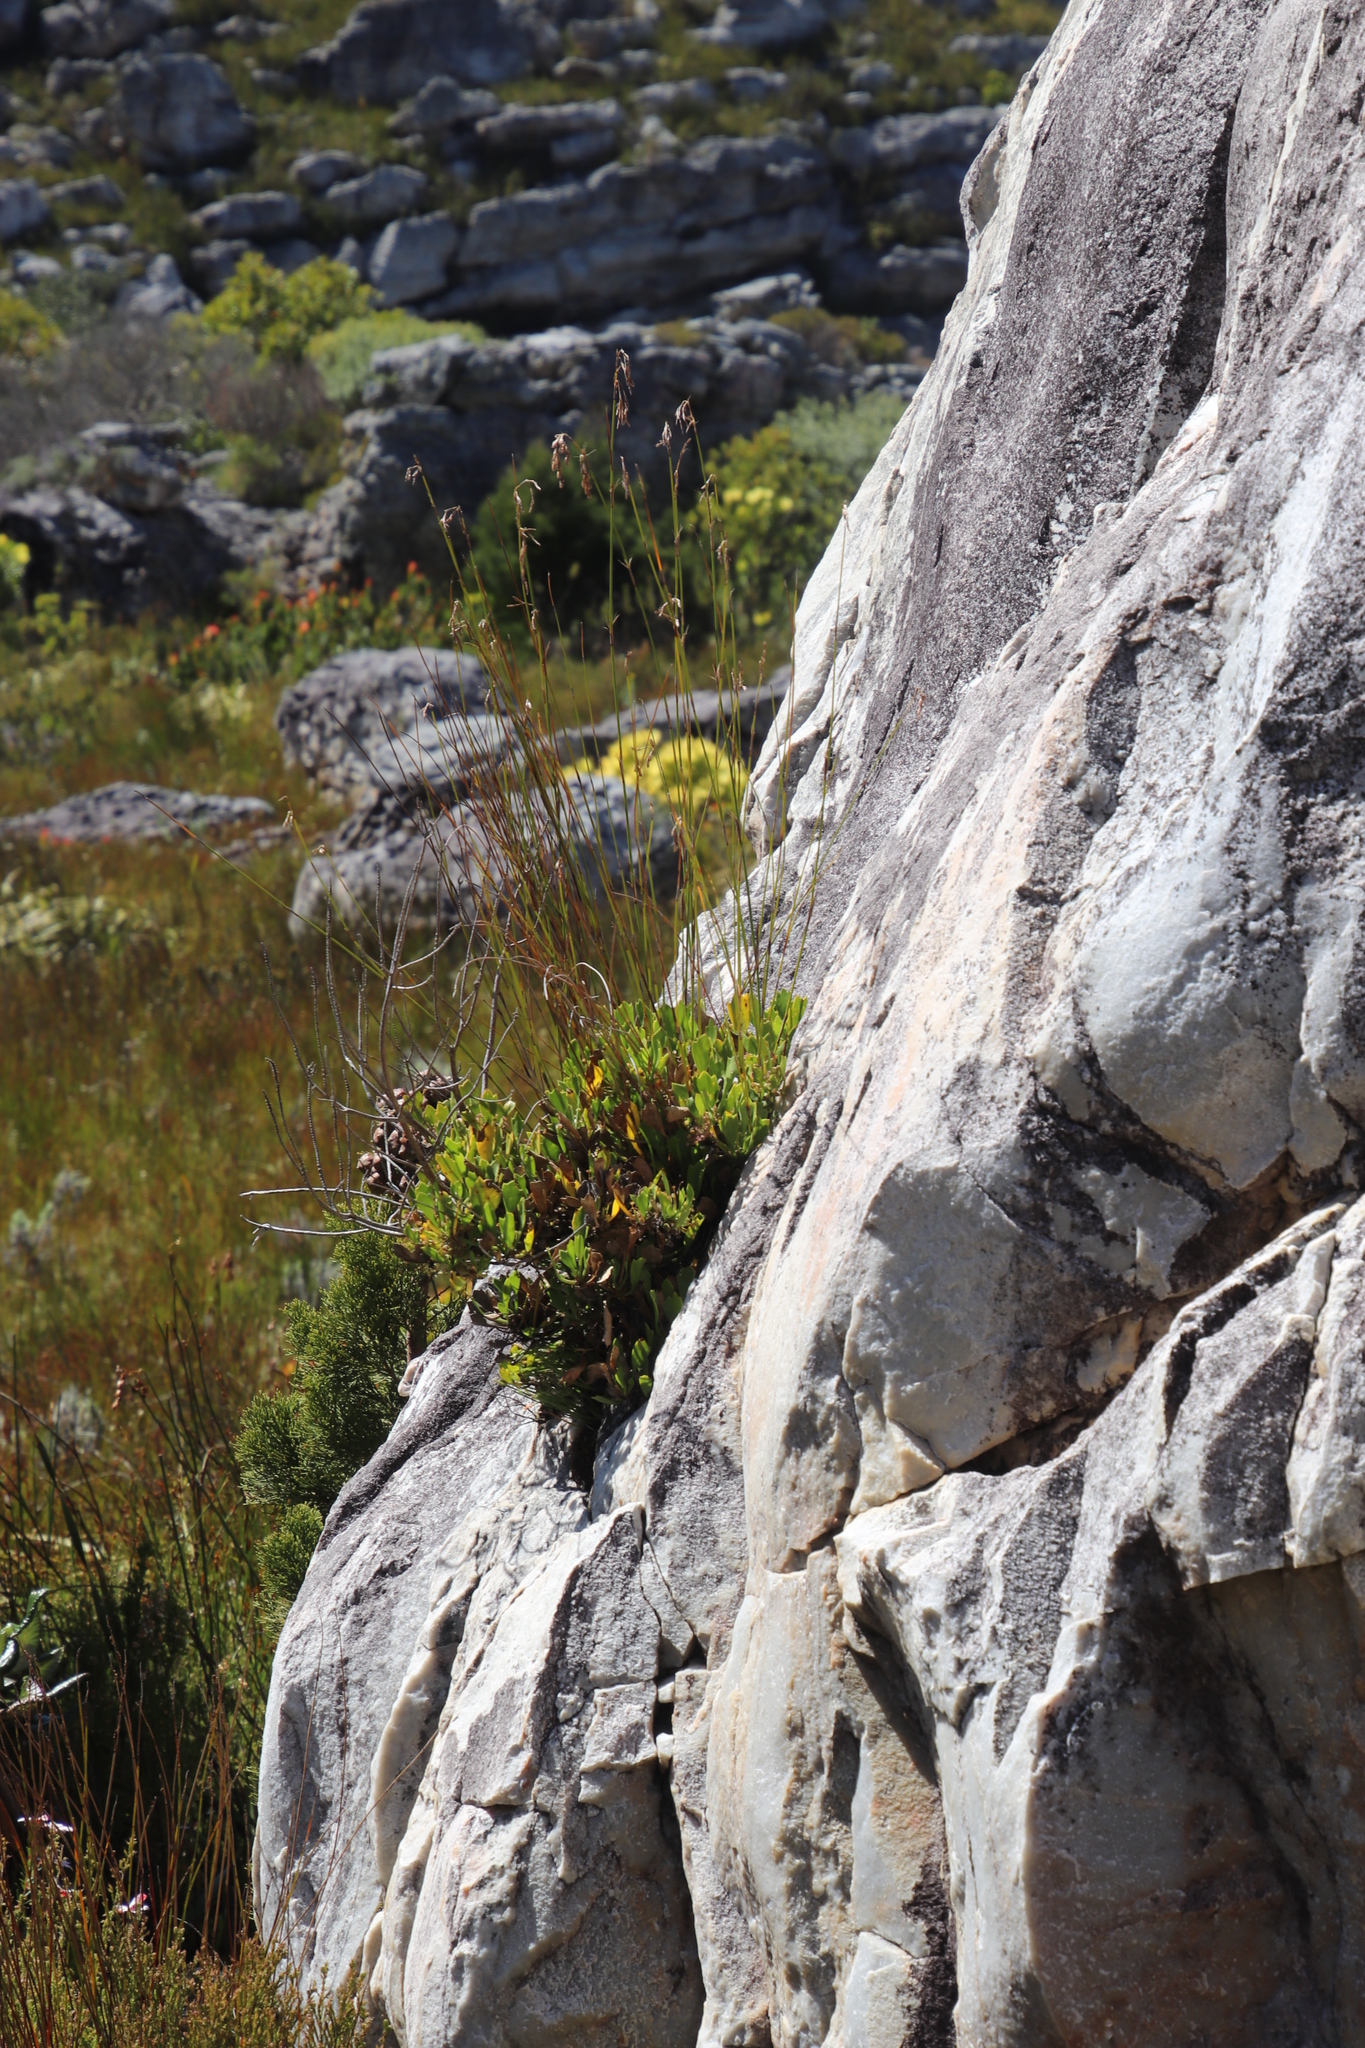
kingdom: Plantae
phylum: Tracheophyta
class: Magnoliopsida
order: Apiales
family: Apiaceae
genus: Centella
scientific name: Centella triloba
